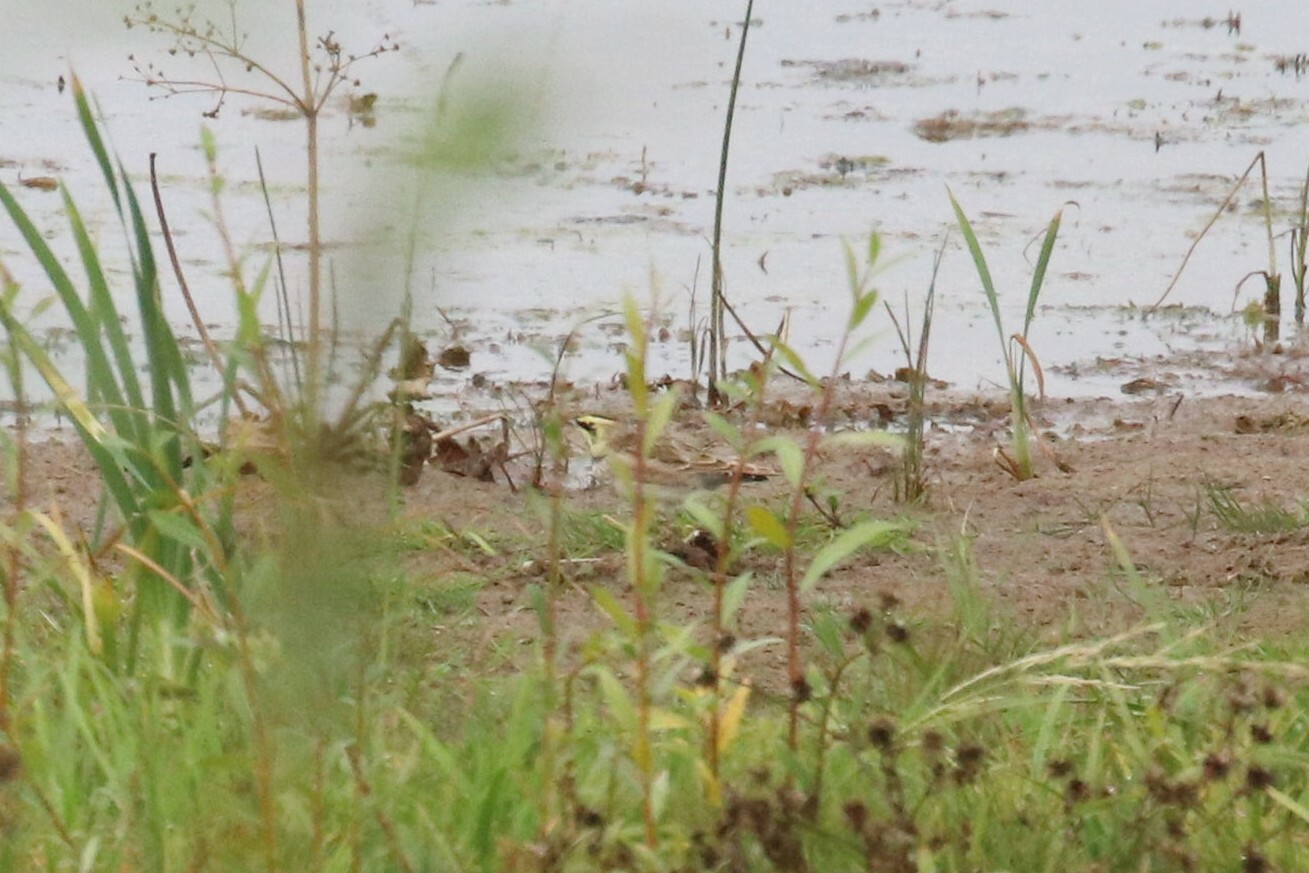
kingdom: Animalia
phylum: Chordata
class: Aves
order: Passeriformes
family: Alaudidae
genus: Eremophila
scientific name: Eremophila alpestris
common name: Horned lark
